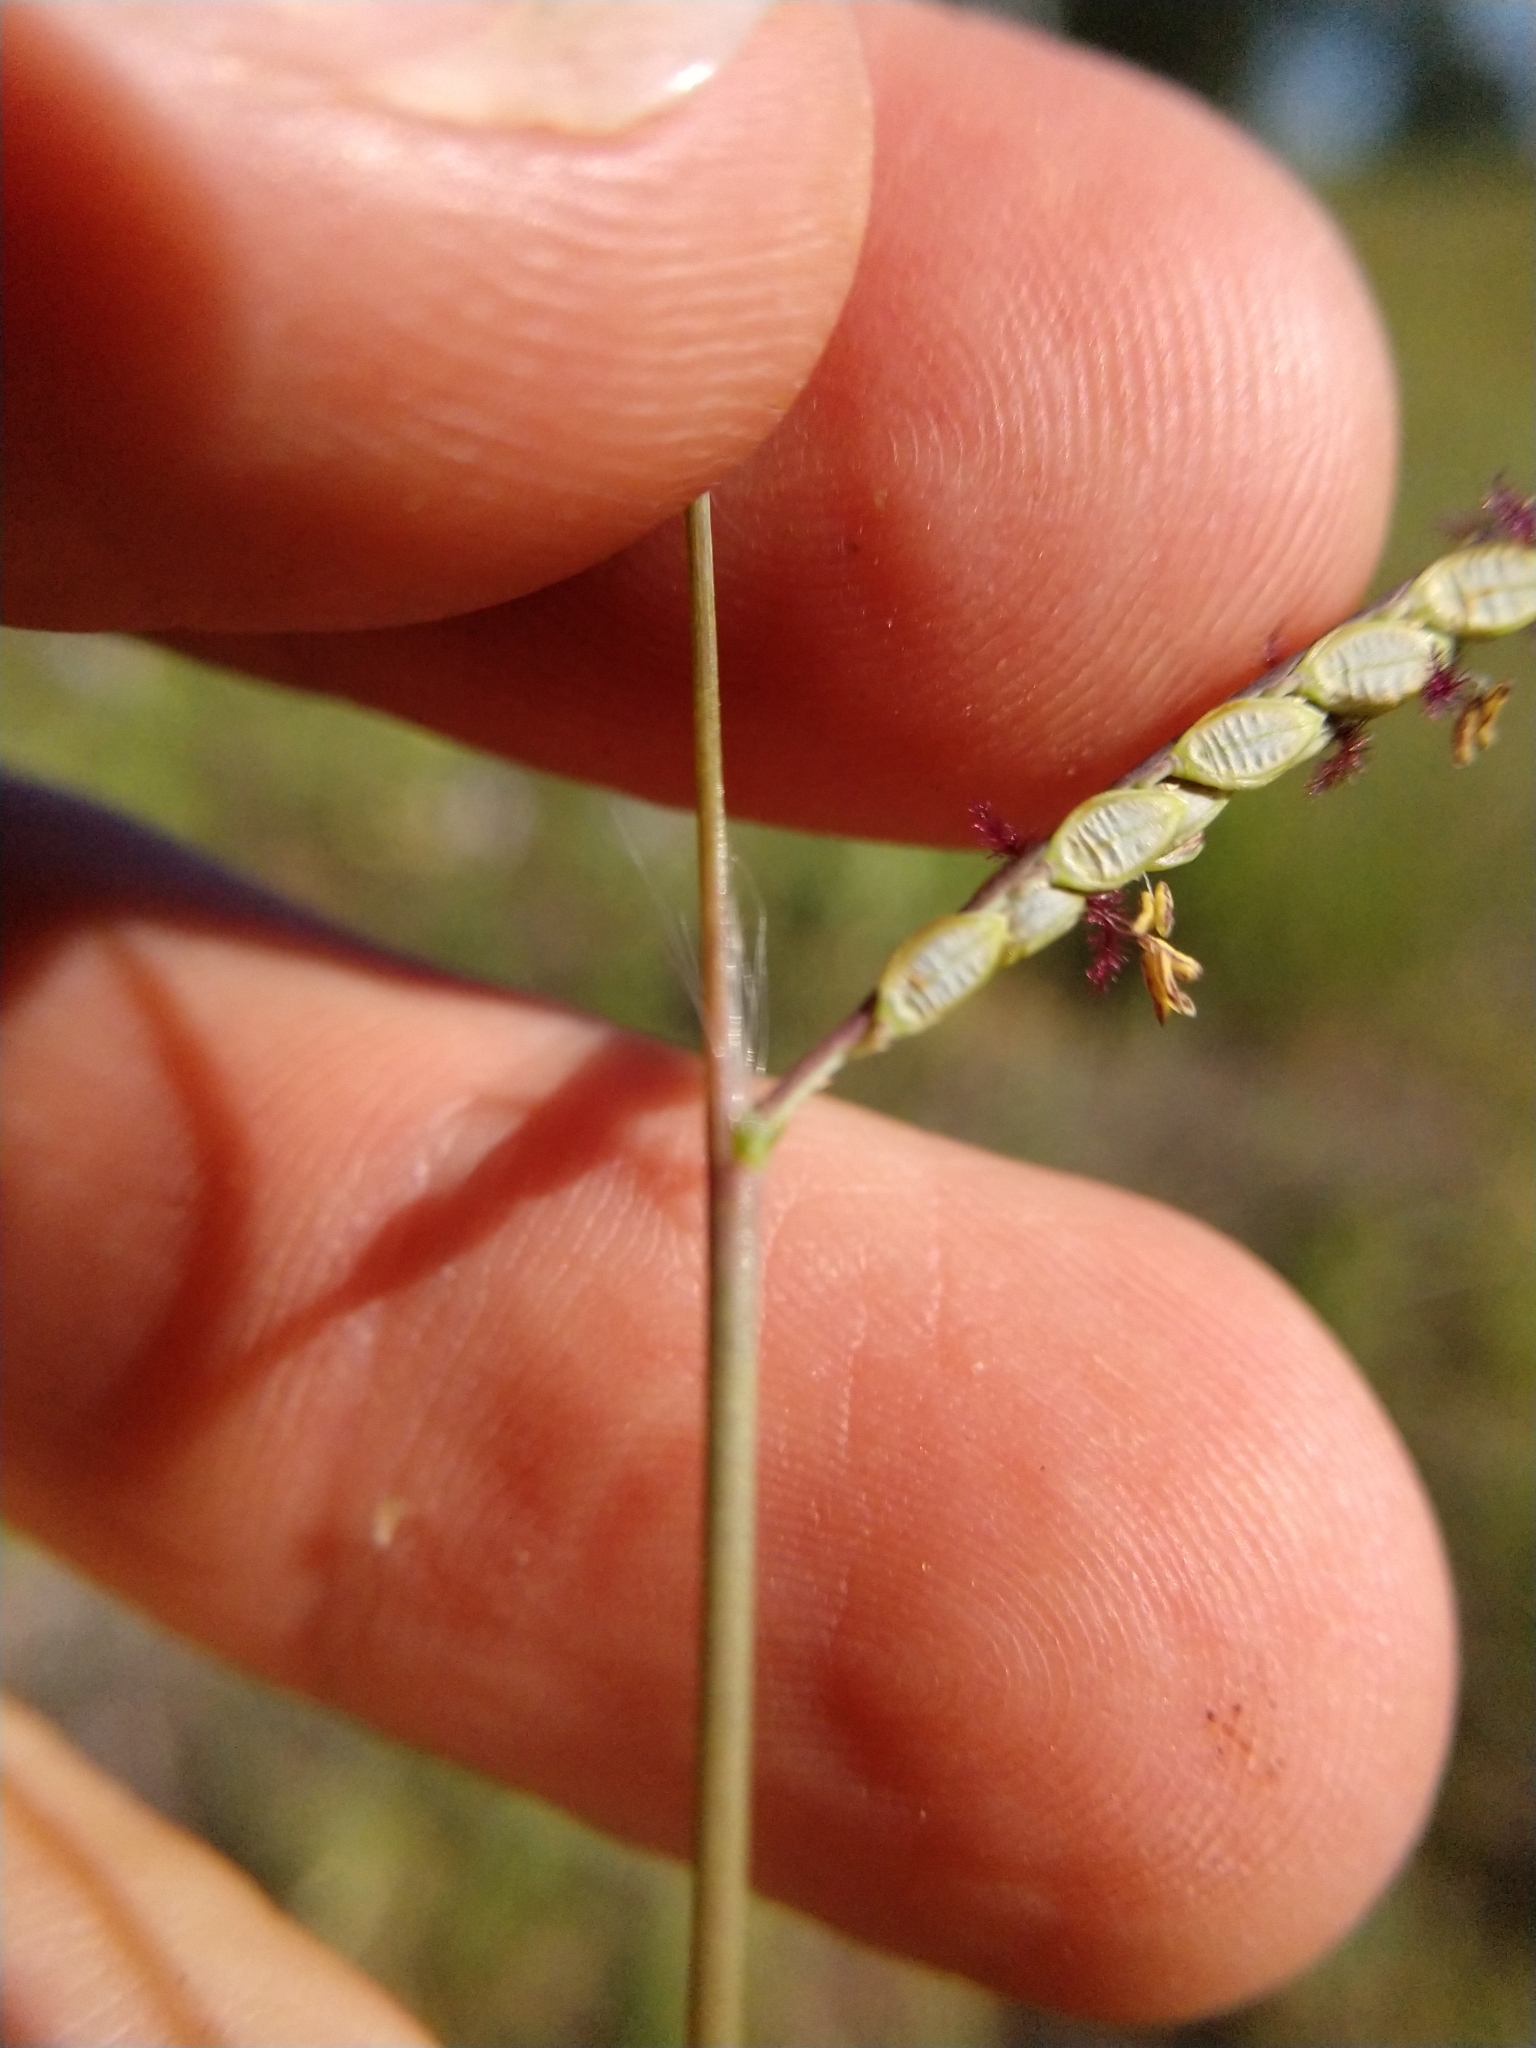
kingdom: Plantae
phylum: Tracheophyta
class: Liliopsida
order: Poales
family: Poaceae
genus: Paspalum
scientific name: Paspalum plicatulum
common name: Top paspalum
